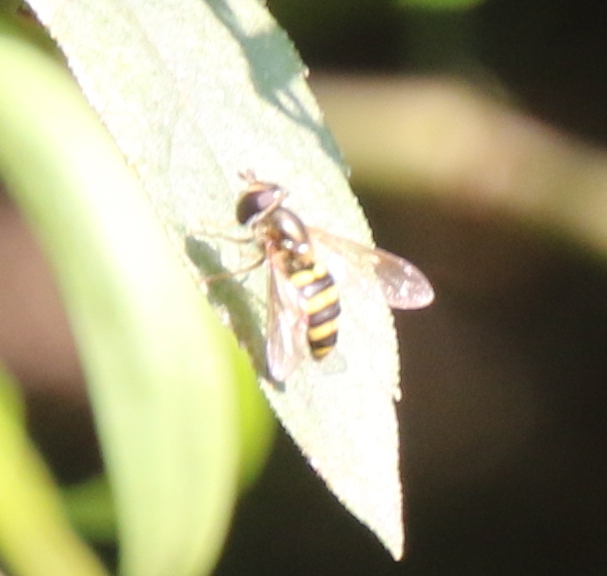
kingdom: Animalia
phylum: Arthropoda
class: Insecta
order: Diptera
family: Syrphidae
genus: Eupeodes
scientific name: Eupeodes
